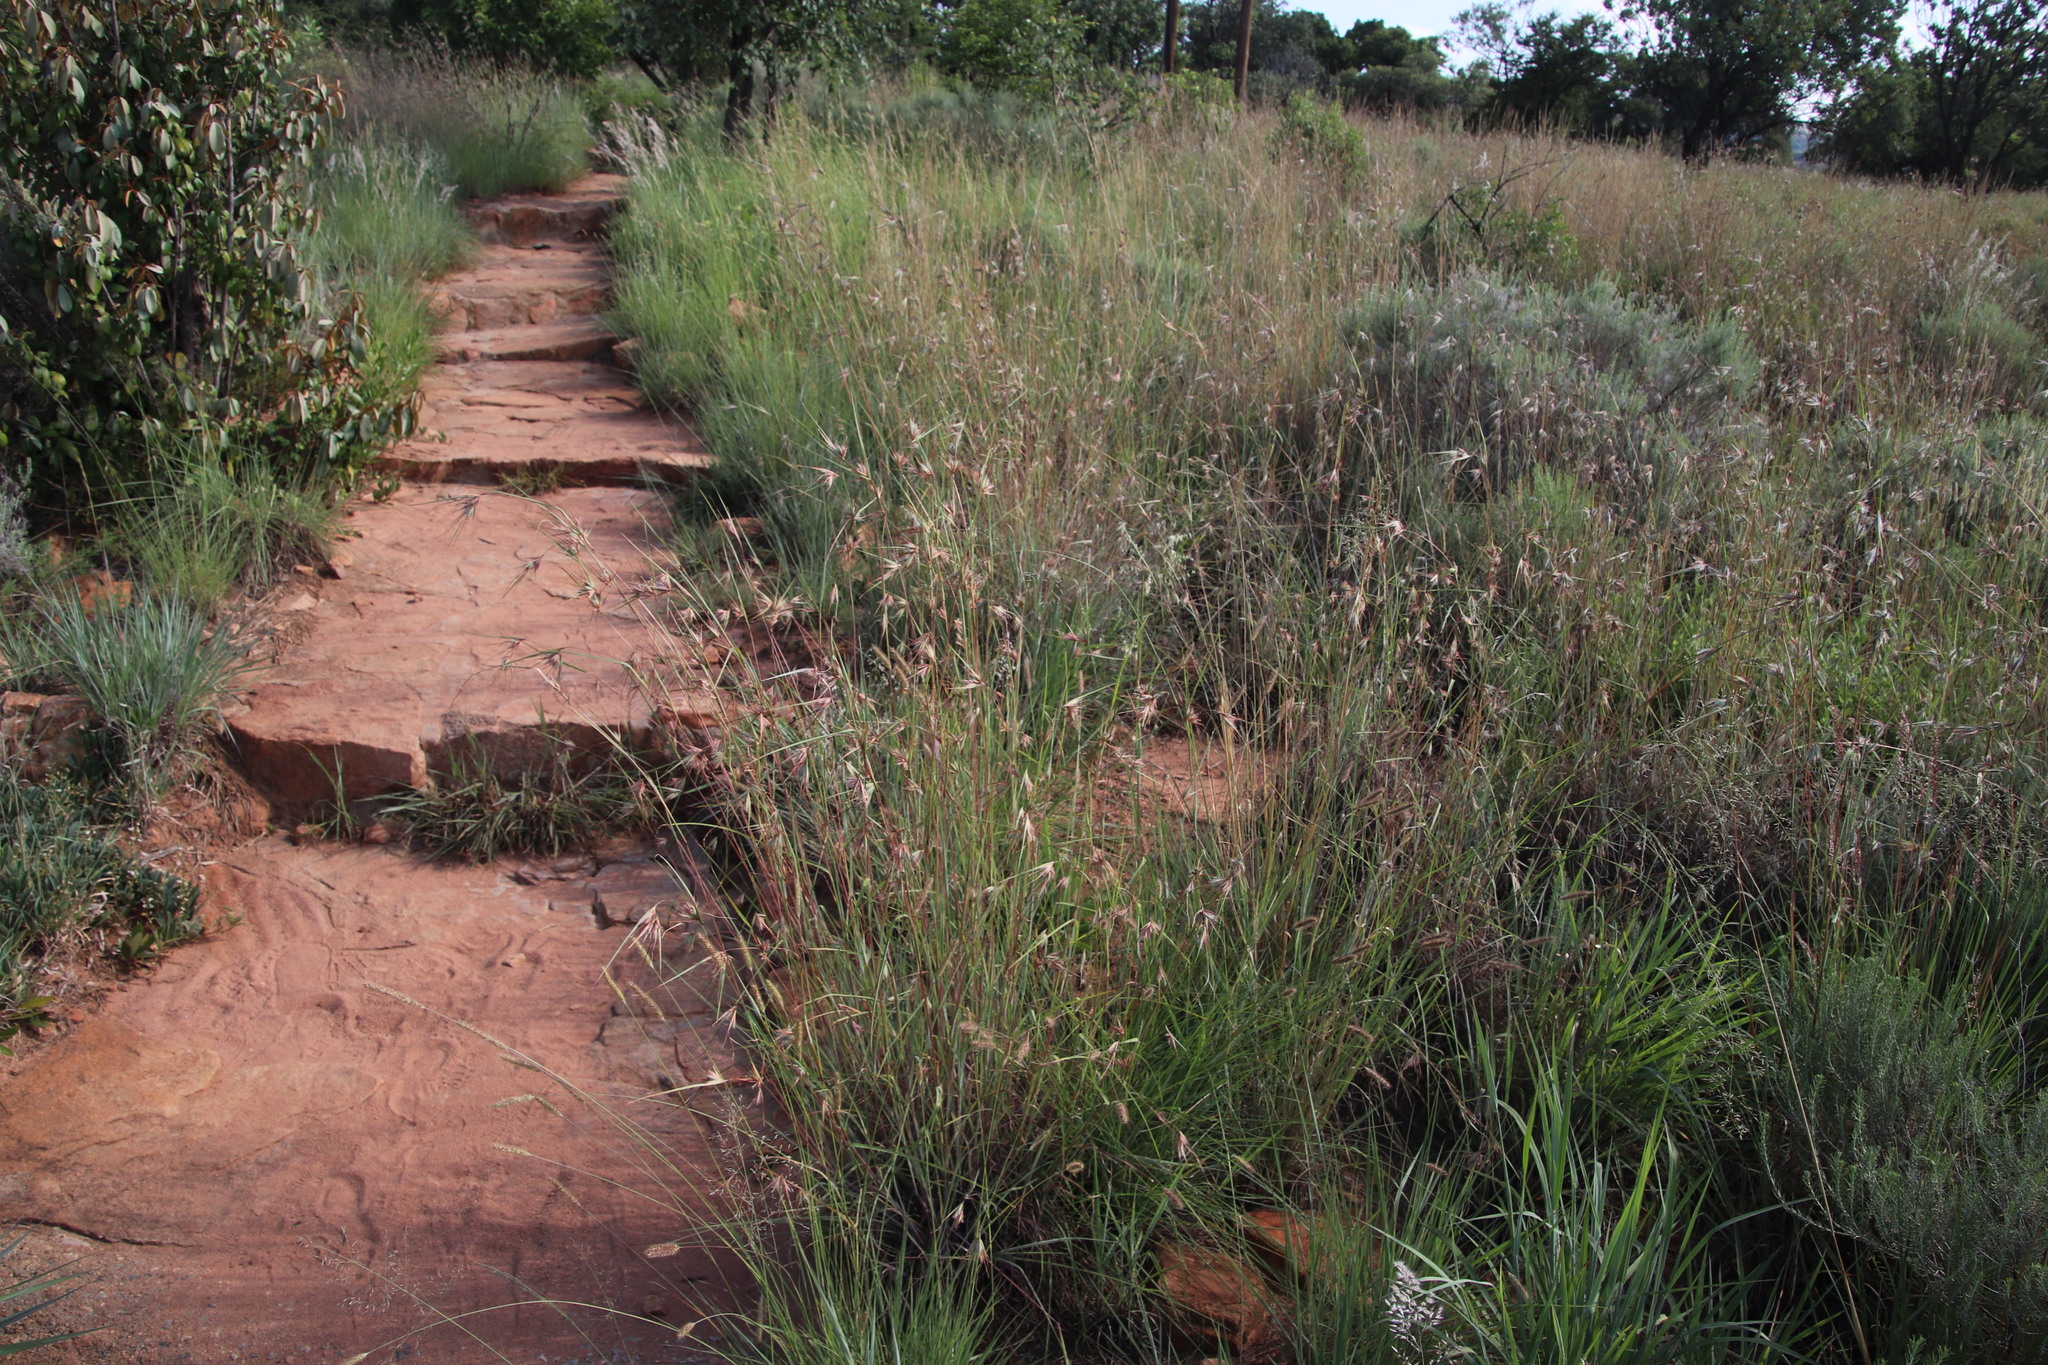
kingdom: Plantae
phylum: Tracheophyta
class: Liliopsida
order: Poales
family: Poaceae
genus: Themeda
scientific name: Themeda triandra
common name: Kangaroo grass
